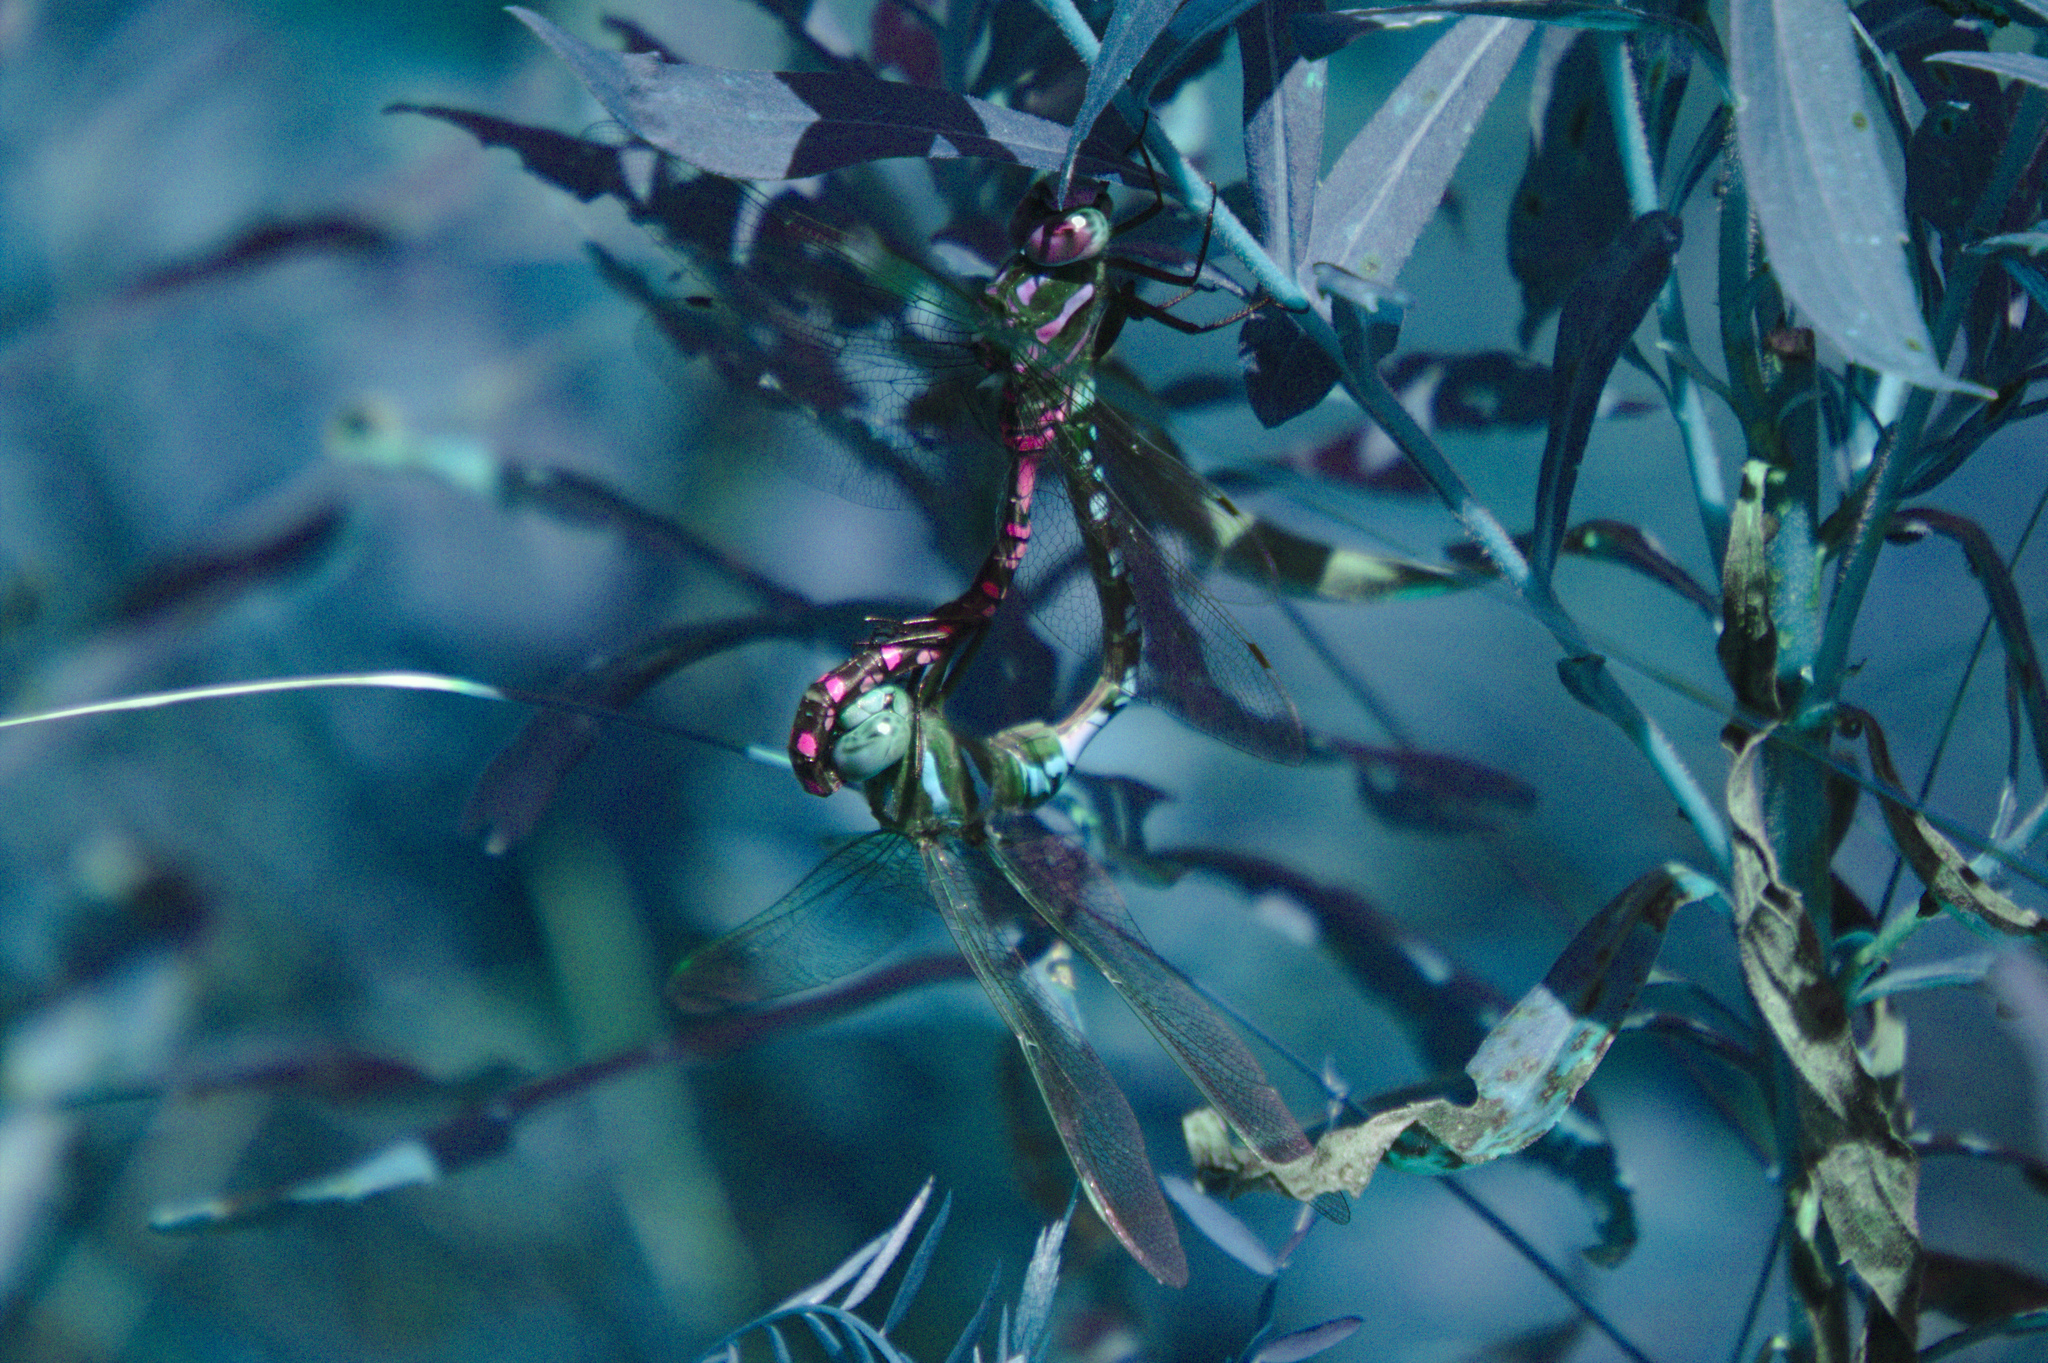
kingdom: Animalia
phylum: Arthropoda
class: Insecta
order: Odonata
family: Aeshnidae
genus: Aeshna
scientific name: Aeshna constricta
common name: Lance-tipped darner
